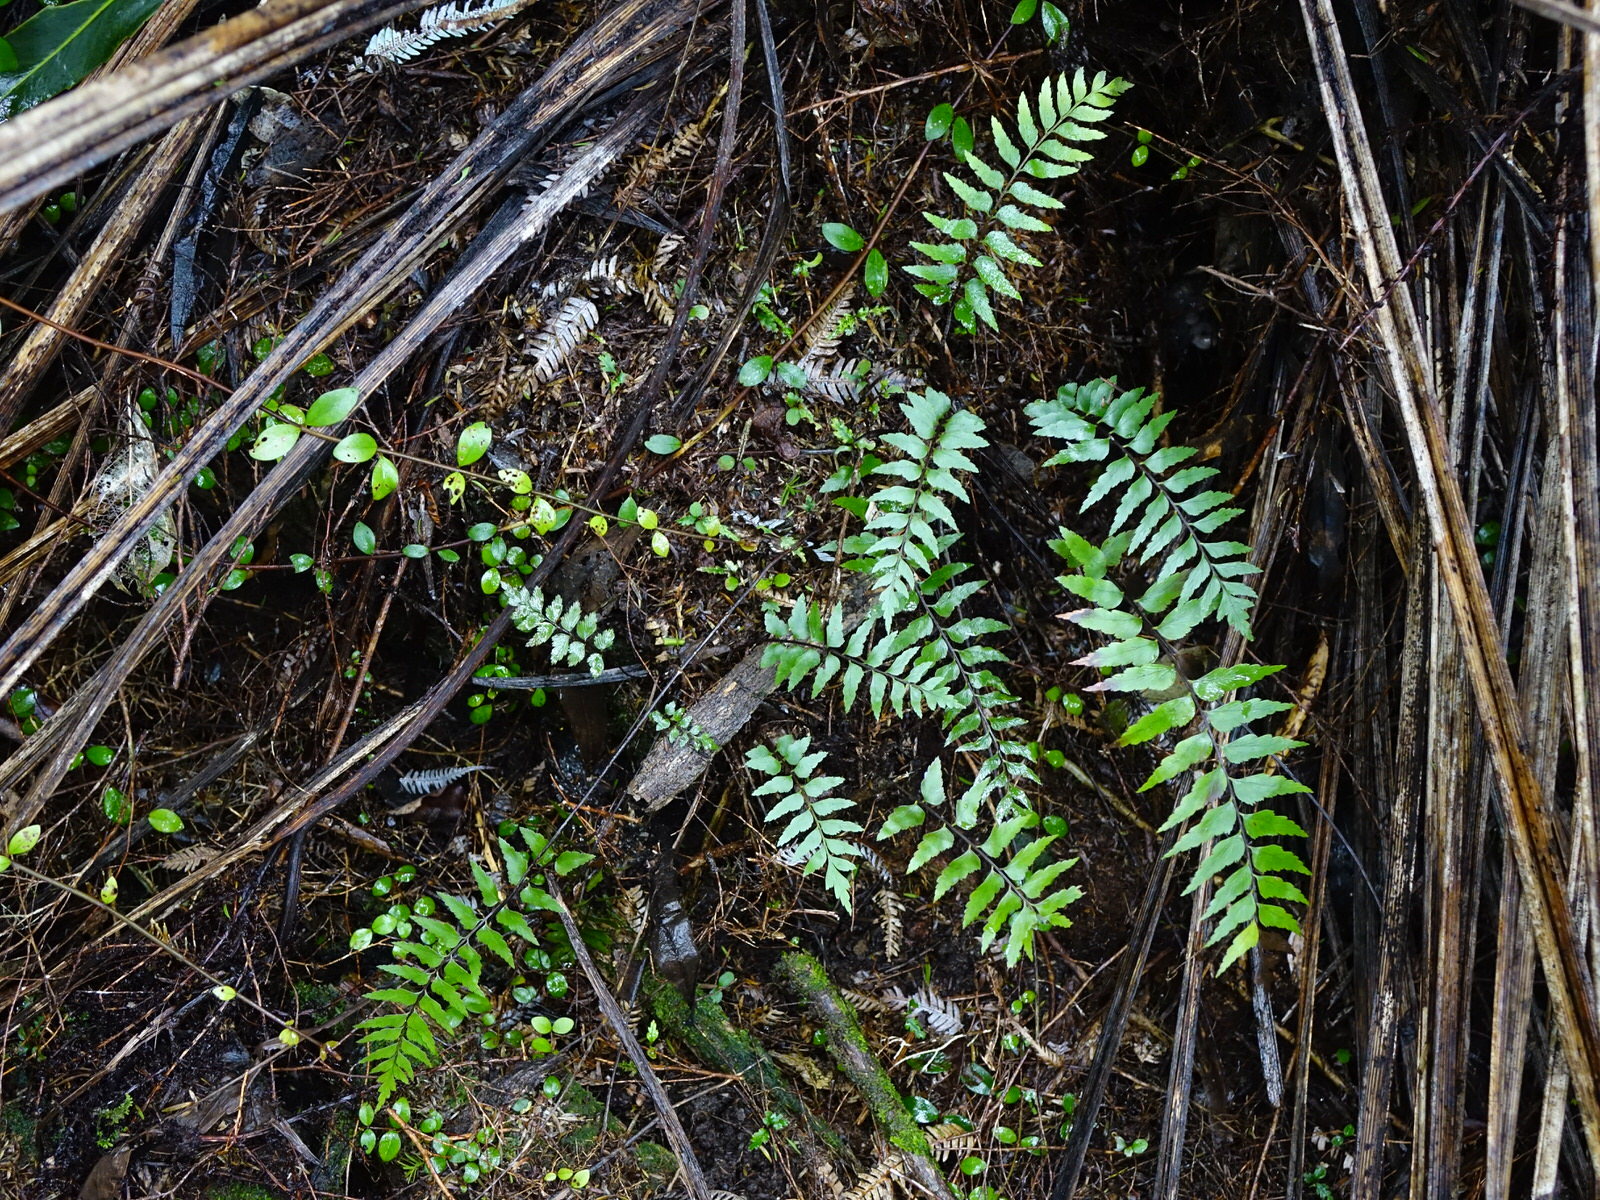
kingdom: Plantae
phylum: Tracheophyta
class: Polypodiopsida
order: Polypodiales
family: Aspleniaceae
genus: Asplenium
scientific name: Asplenium polyodon
